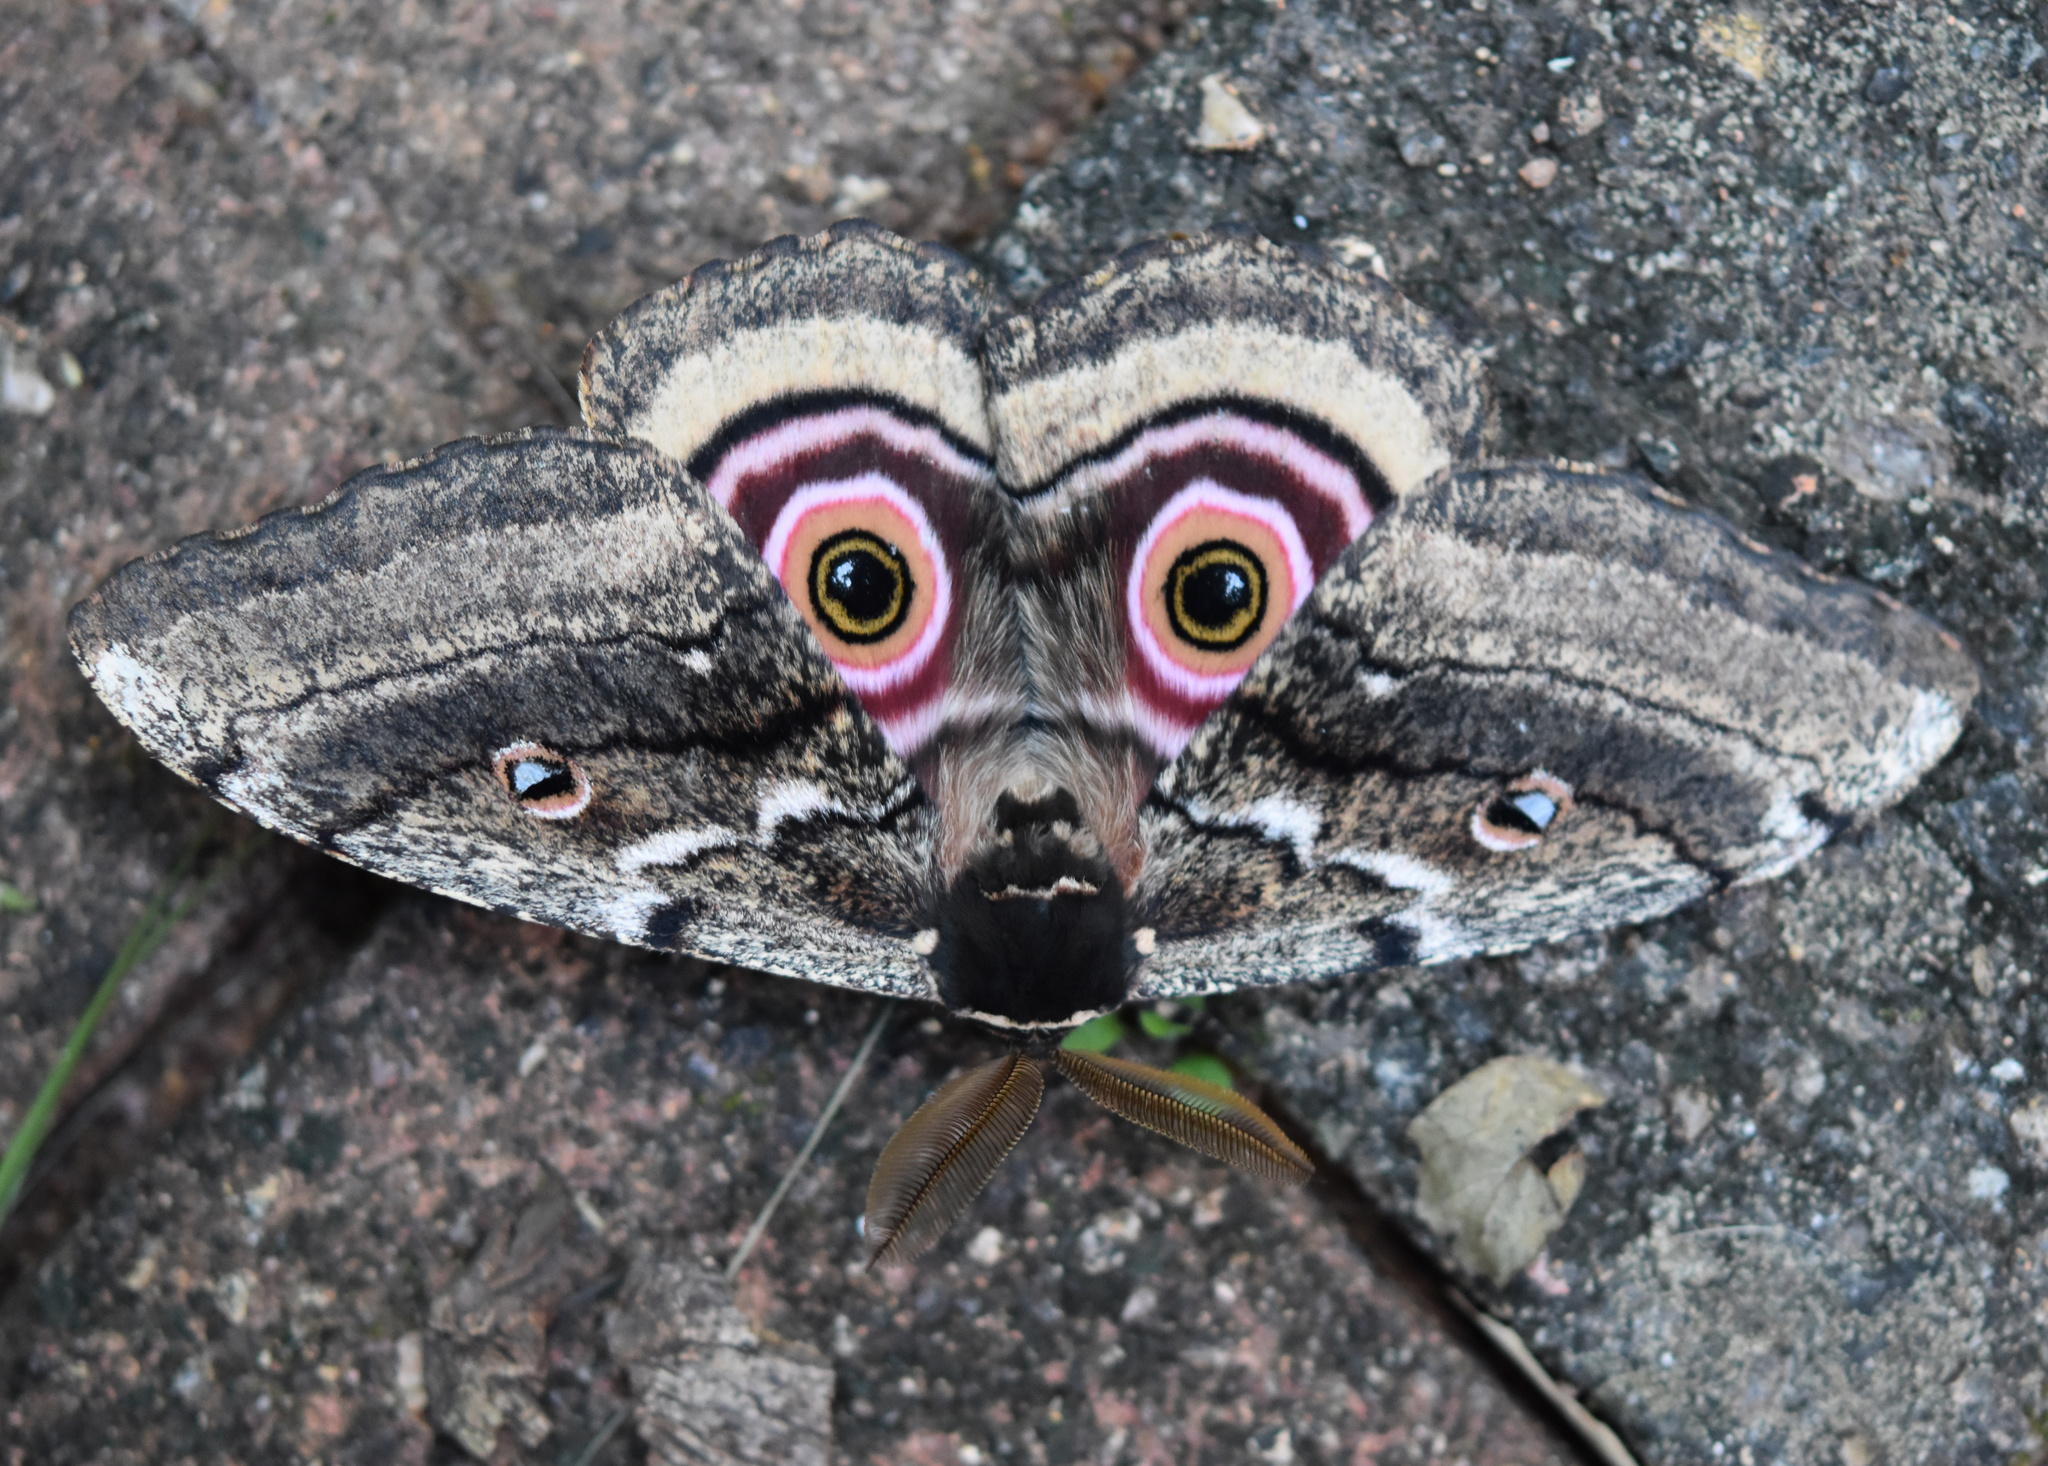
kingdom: Animalia
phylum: Arthropoda
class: Insecta
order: Lepidoptera
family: Saturniidae
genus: Gynanisa
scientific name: Gynanisa maja
